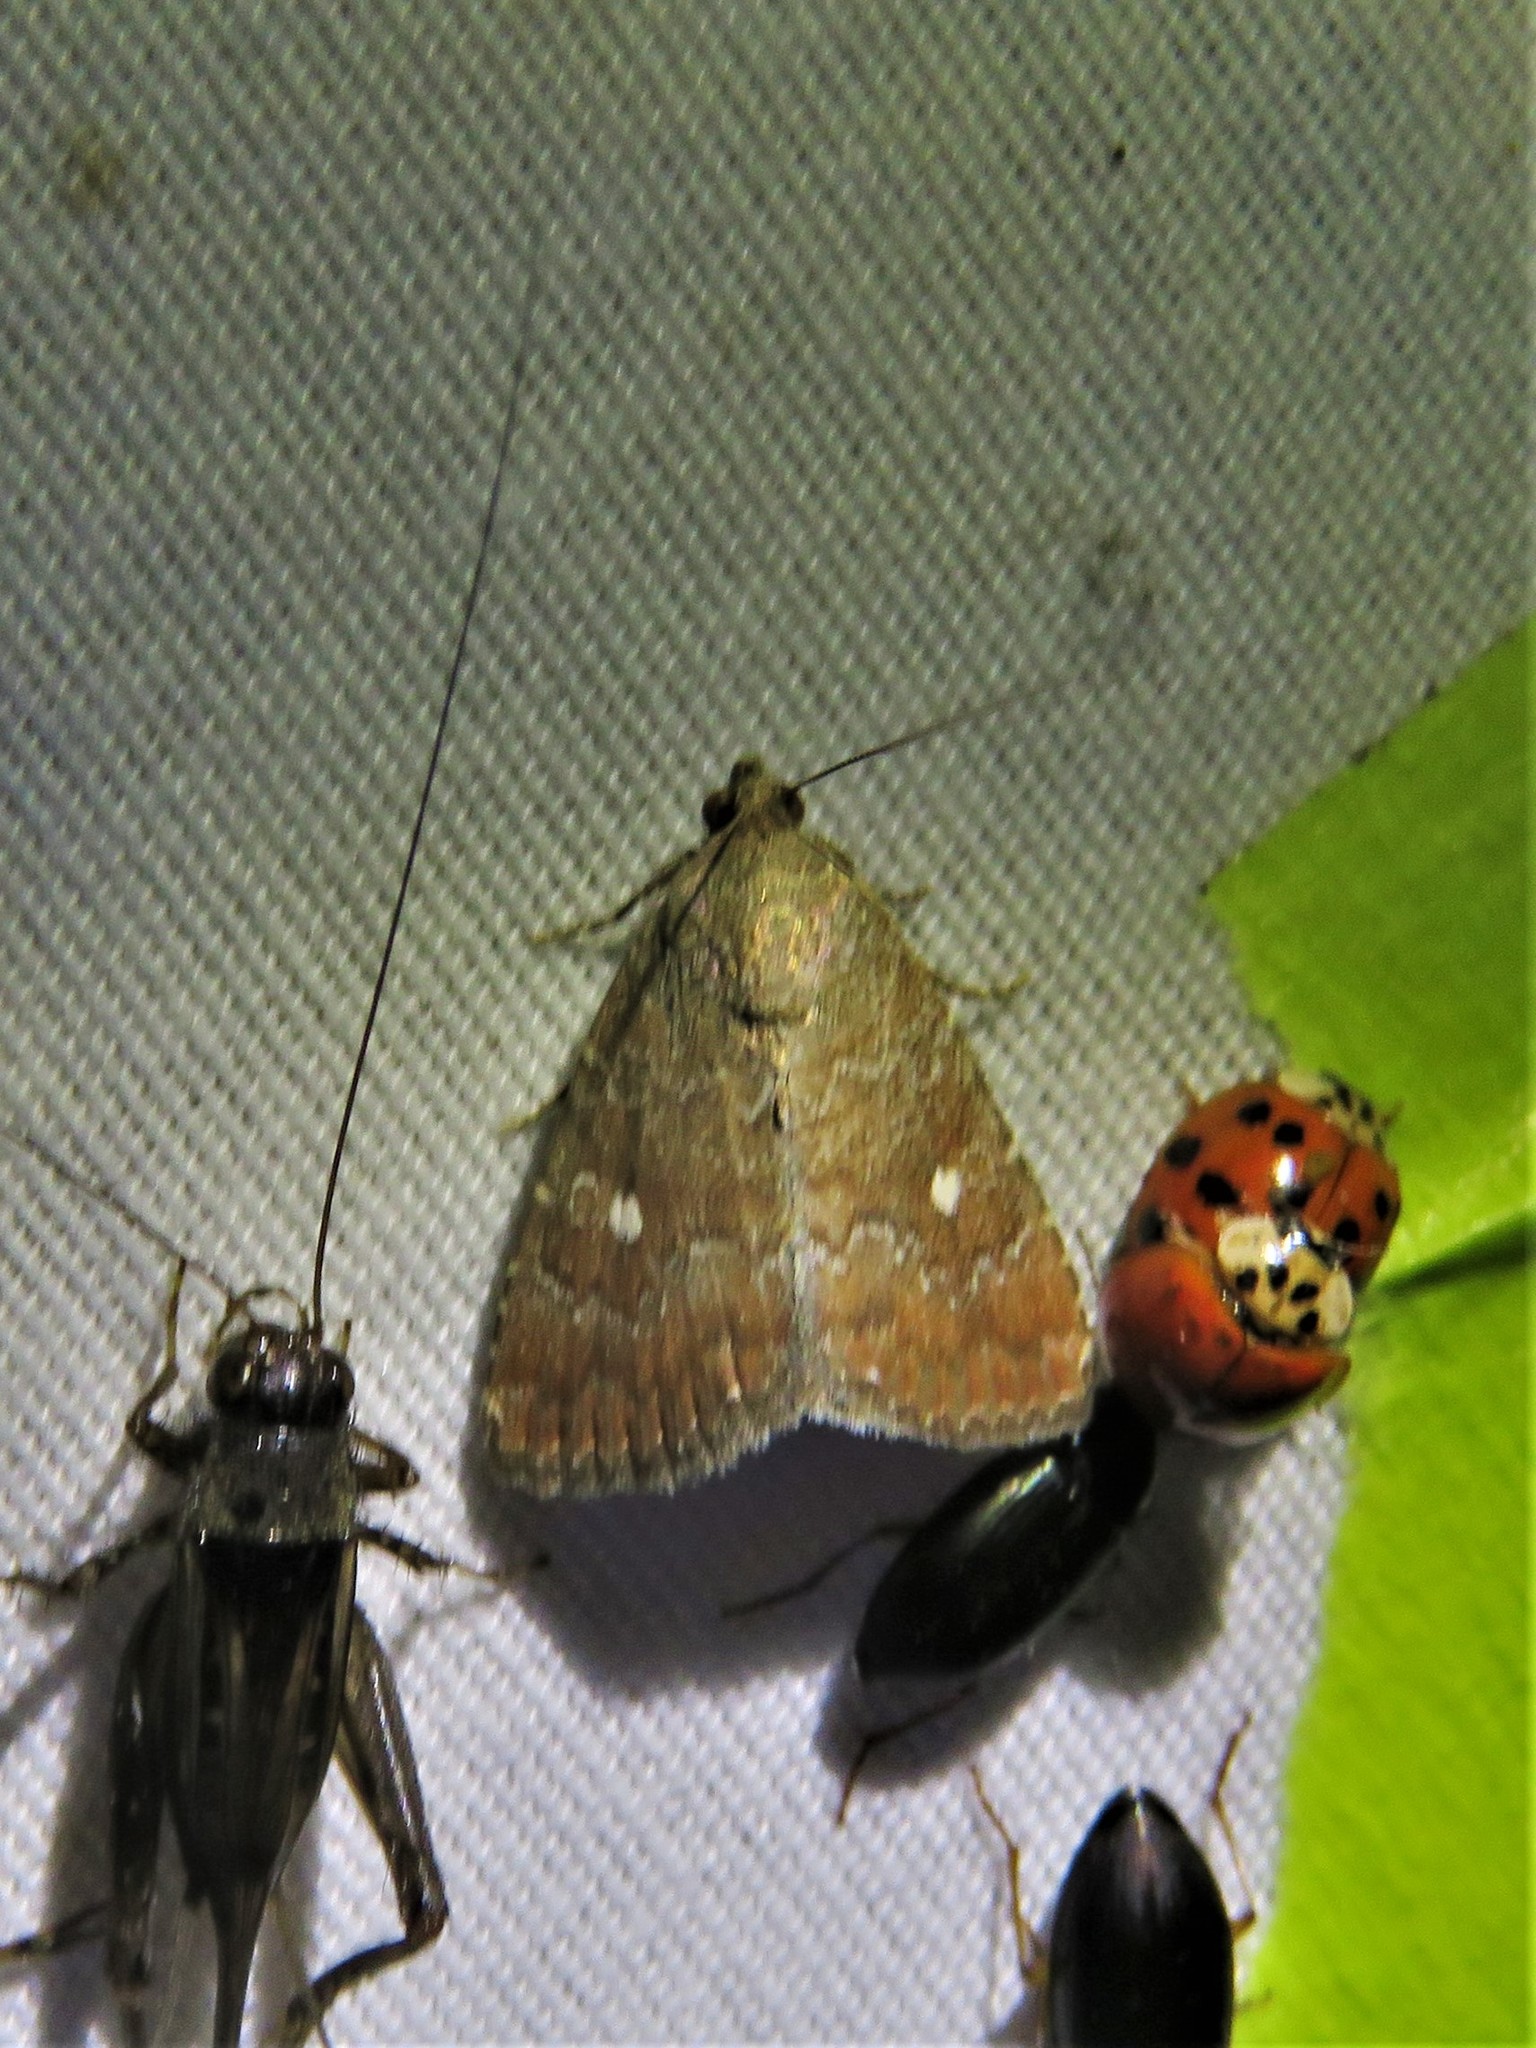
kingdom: Animalia
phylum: Arthropoda
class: Insecta
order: Lepidoptera
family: Noctuidae
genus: Amyna
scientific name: Amyna stricta
